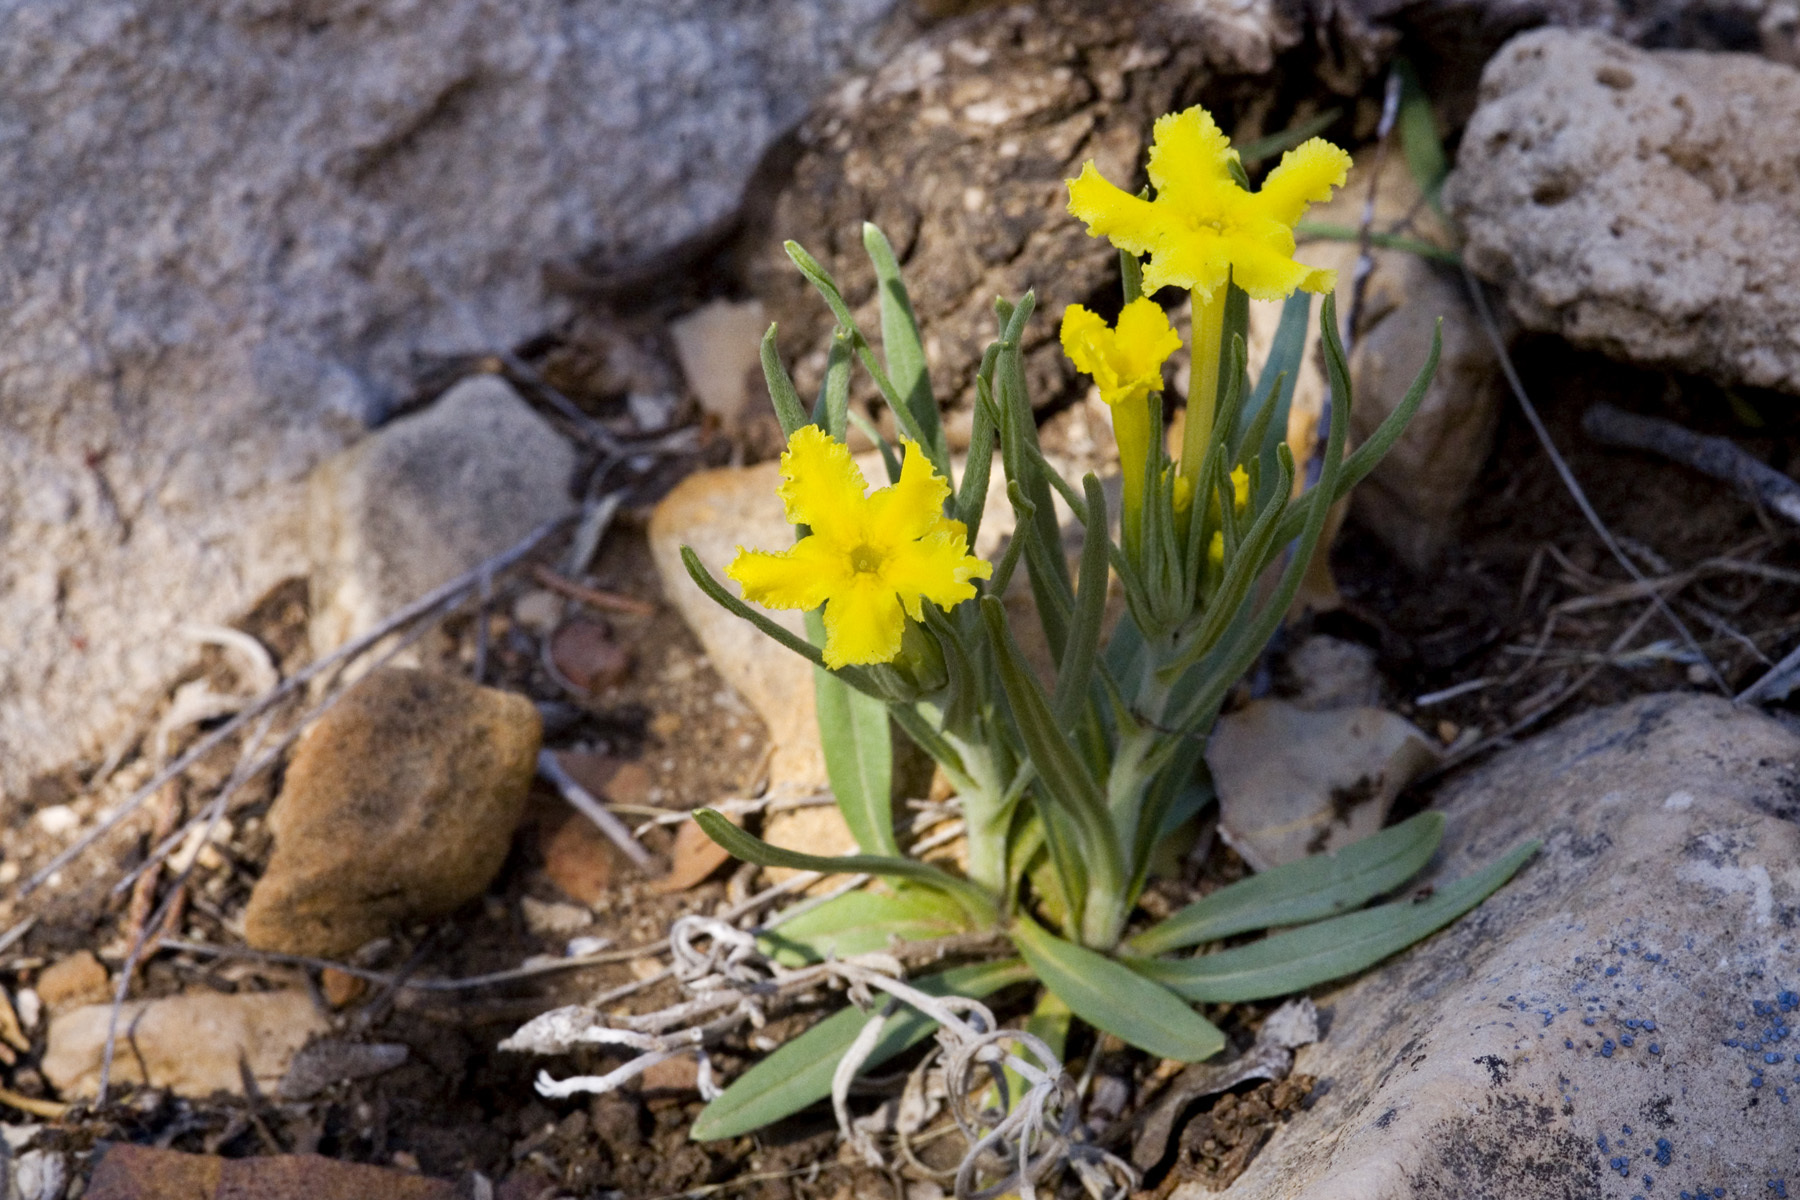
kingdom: Plantae
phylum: Tracheophyta
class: Magnoliopsida
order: Boraginales
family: Boraginaceae
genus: Lithospermum
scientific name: Lithospermum incisum
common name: Fringed gromwell
